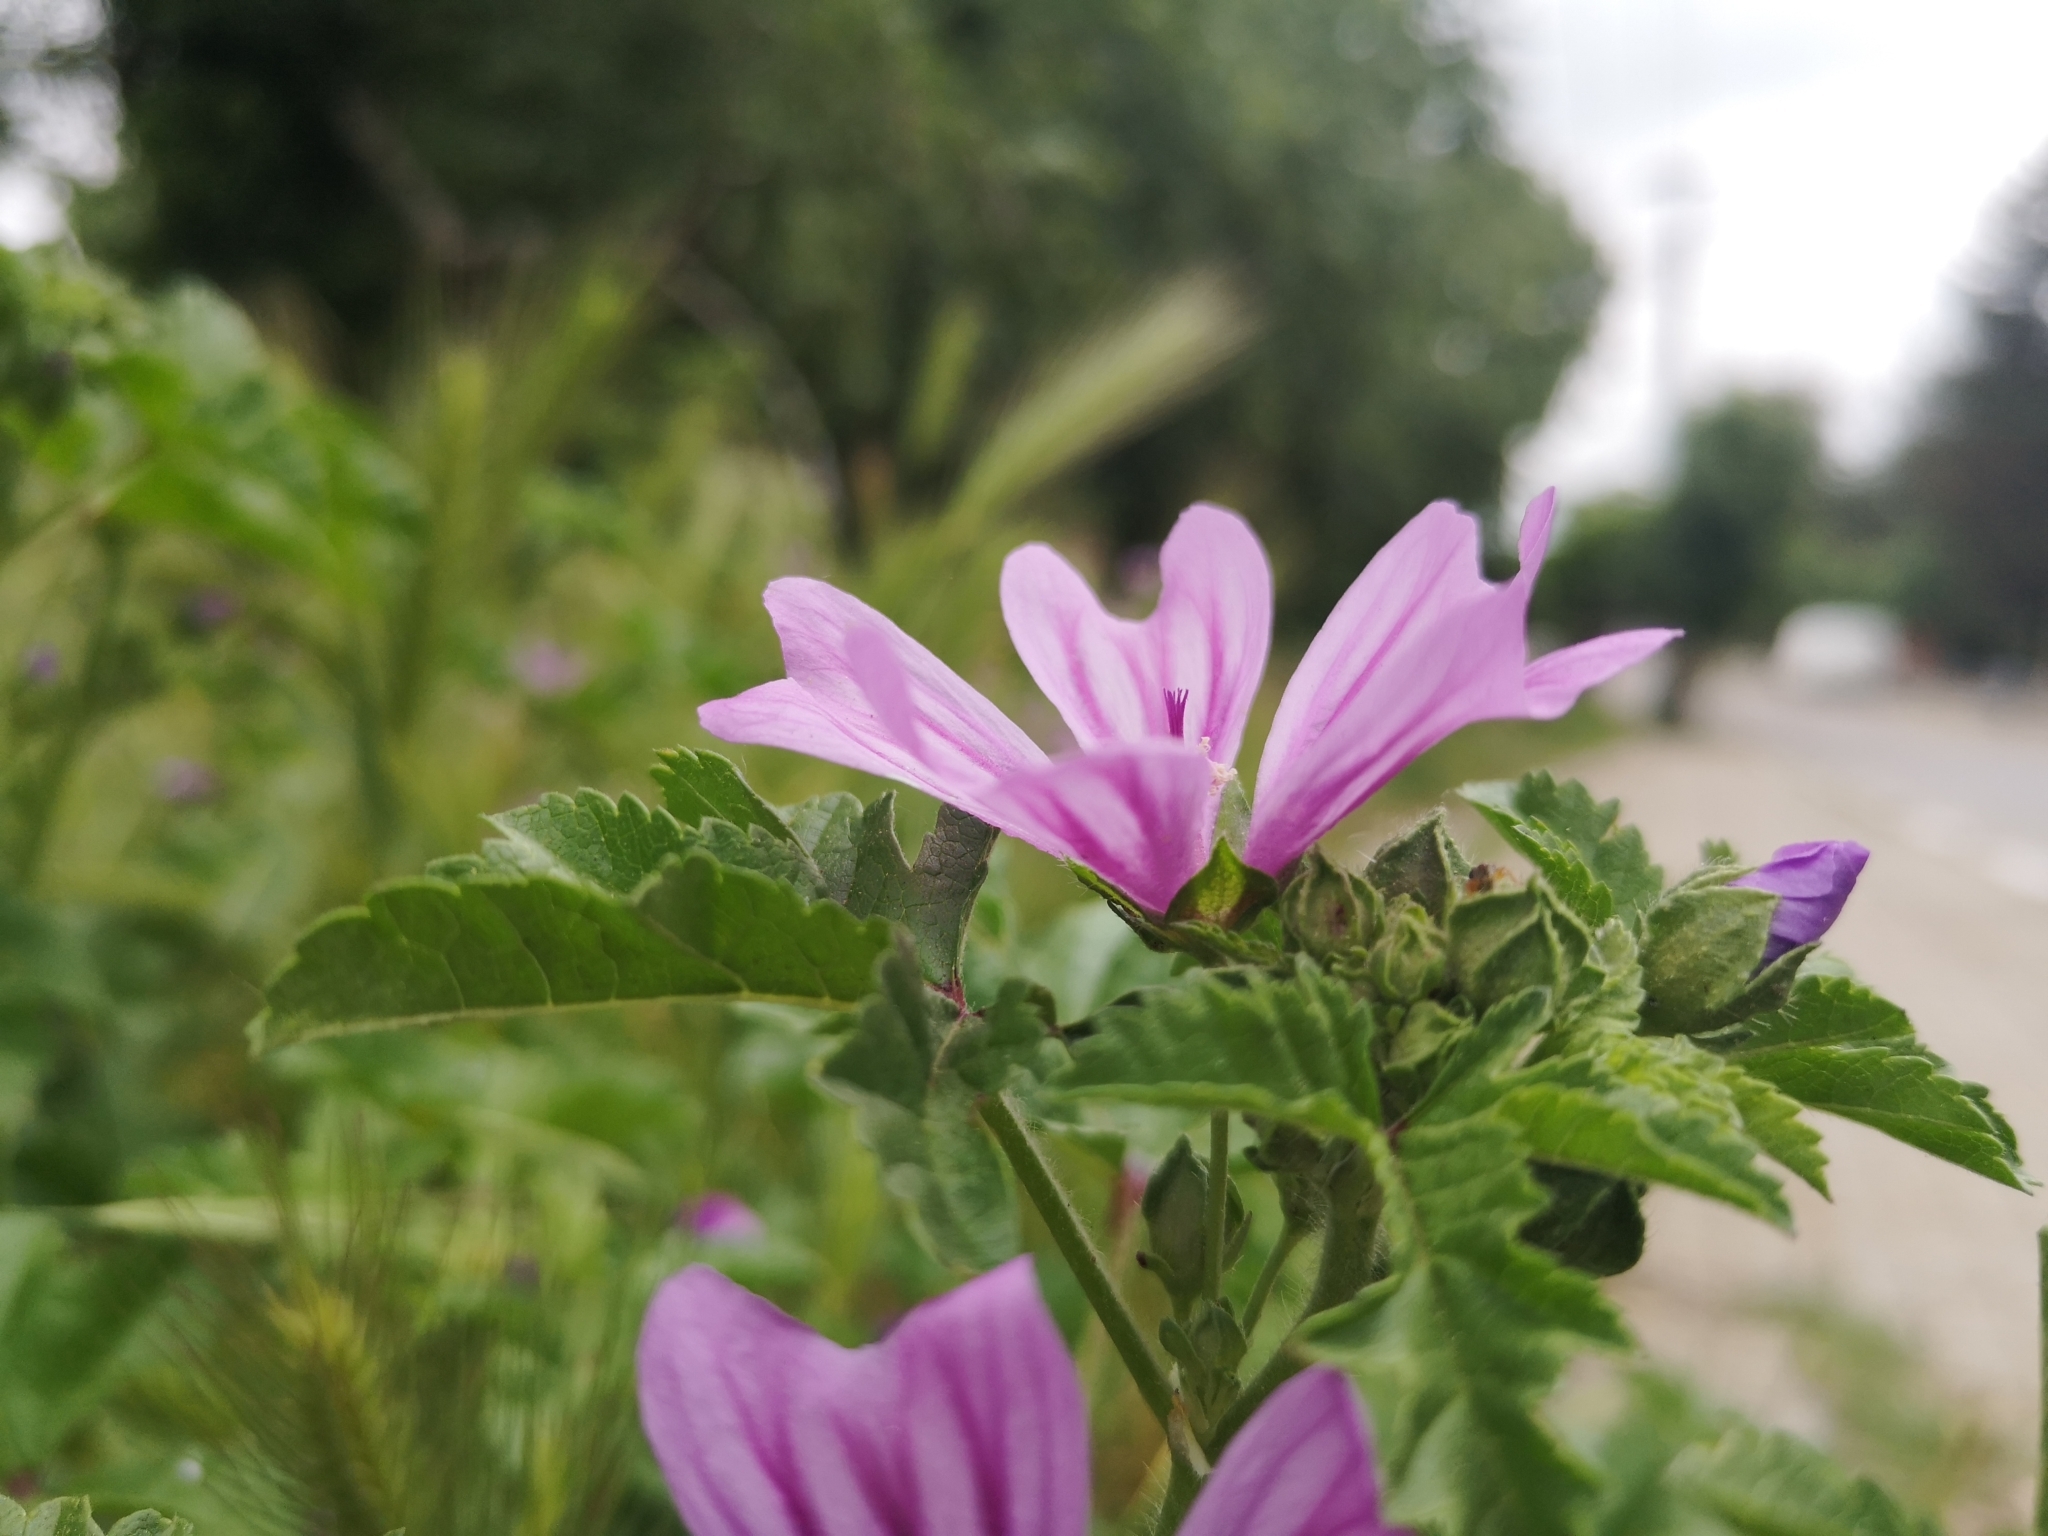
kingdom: Plantae
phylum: Tracheophyta
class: Magnoliopsida
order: Malvales
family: Malvaceae
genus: Malva
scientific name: Malva sylvestris
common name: Common mallow
